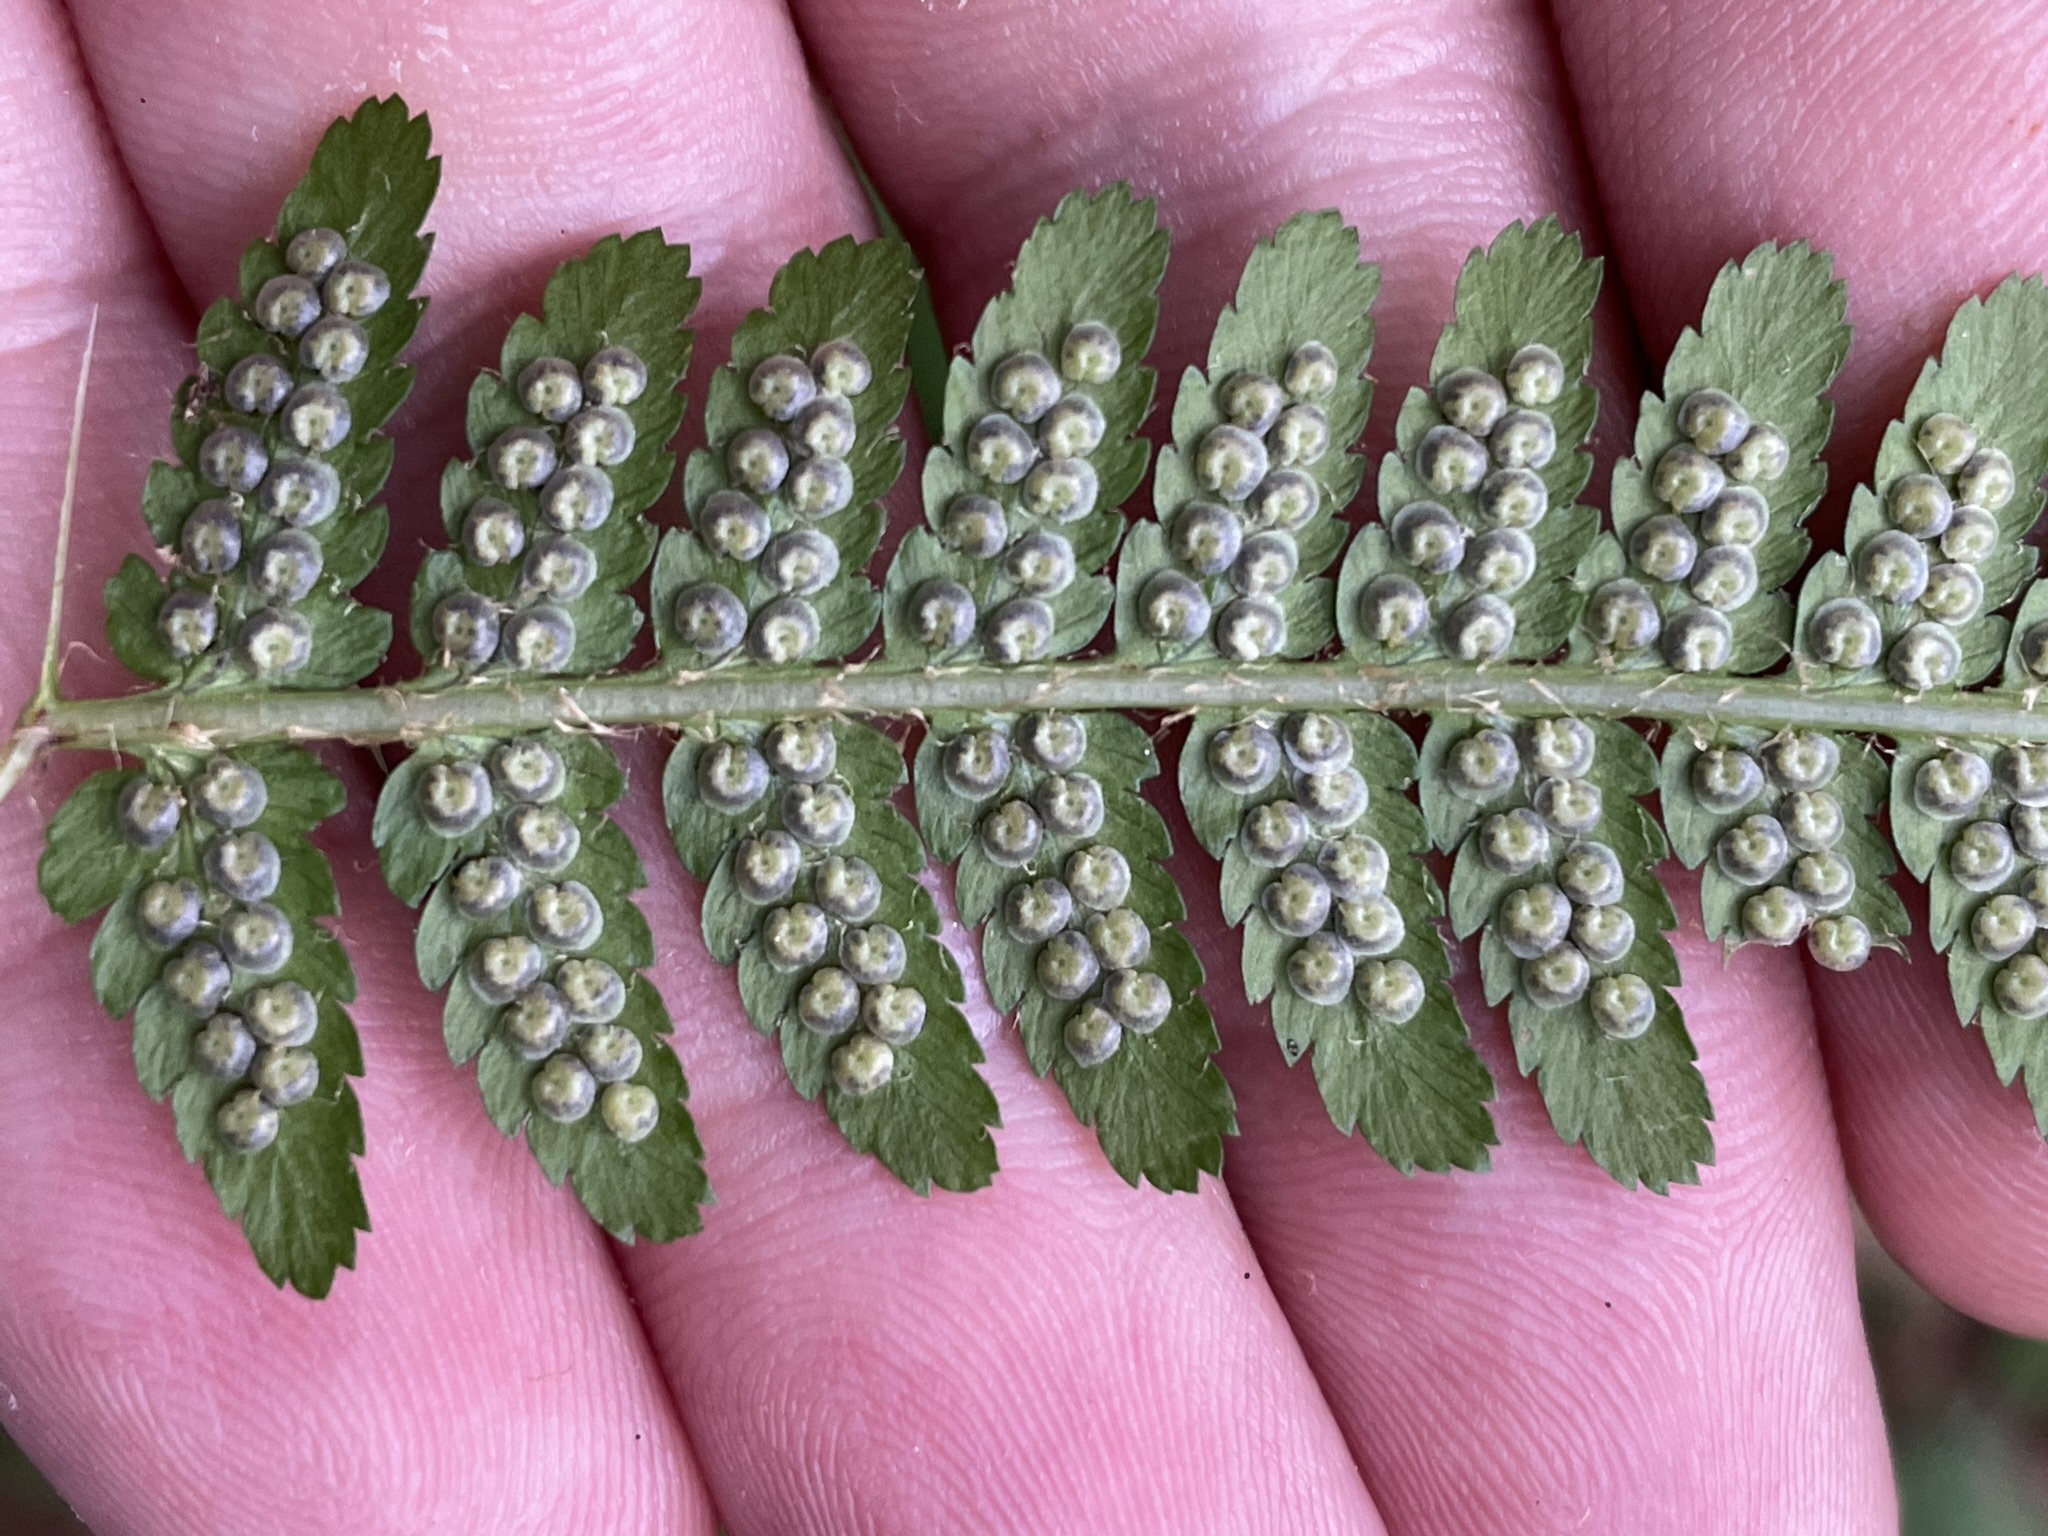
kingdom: Plantae
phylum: Tracheophyta
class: Polypodiopsida
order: Polypodiales
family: Dryopteridaceae
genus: Dryopteris
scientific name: Dryopteris filix-mas
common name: Male fern
